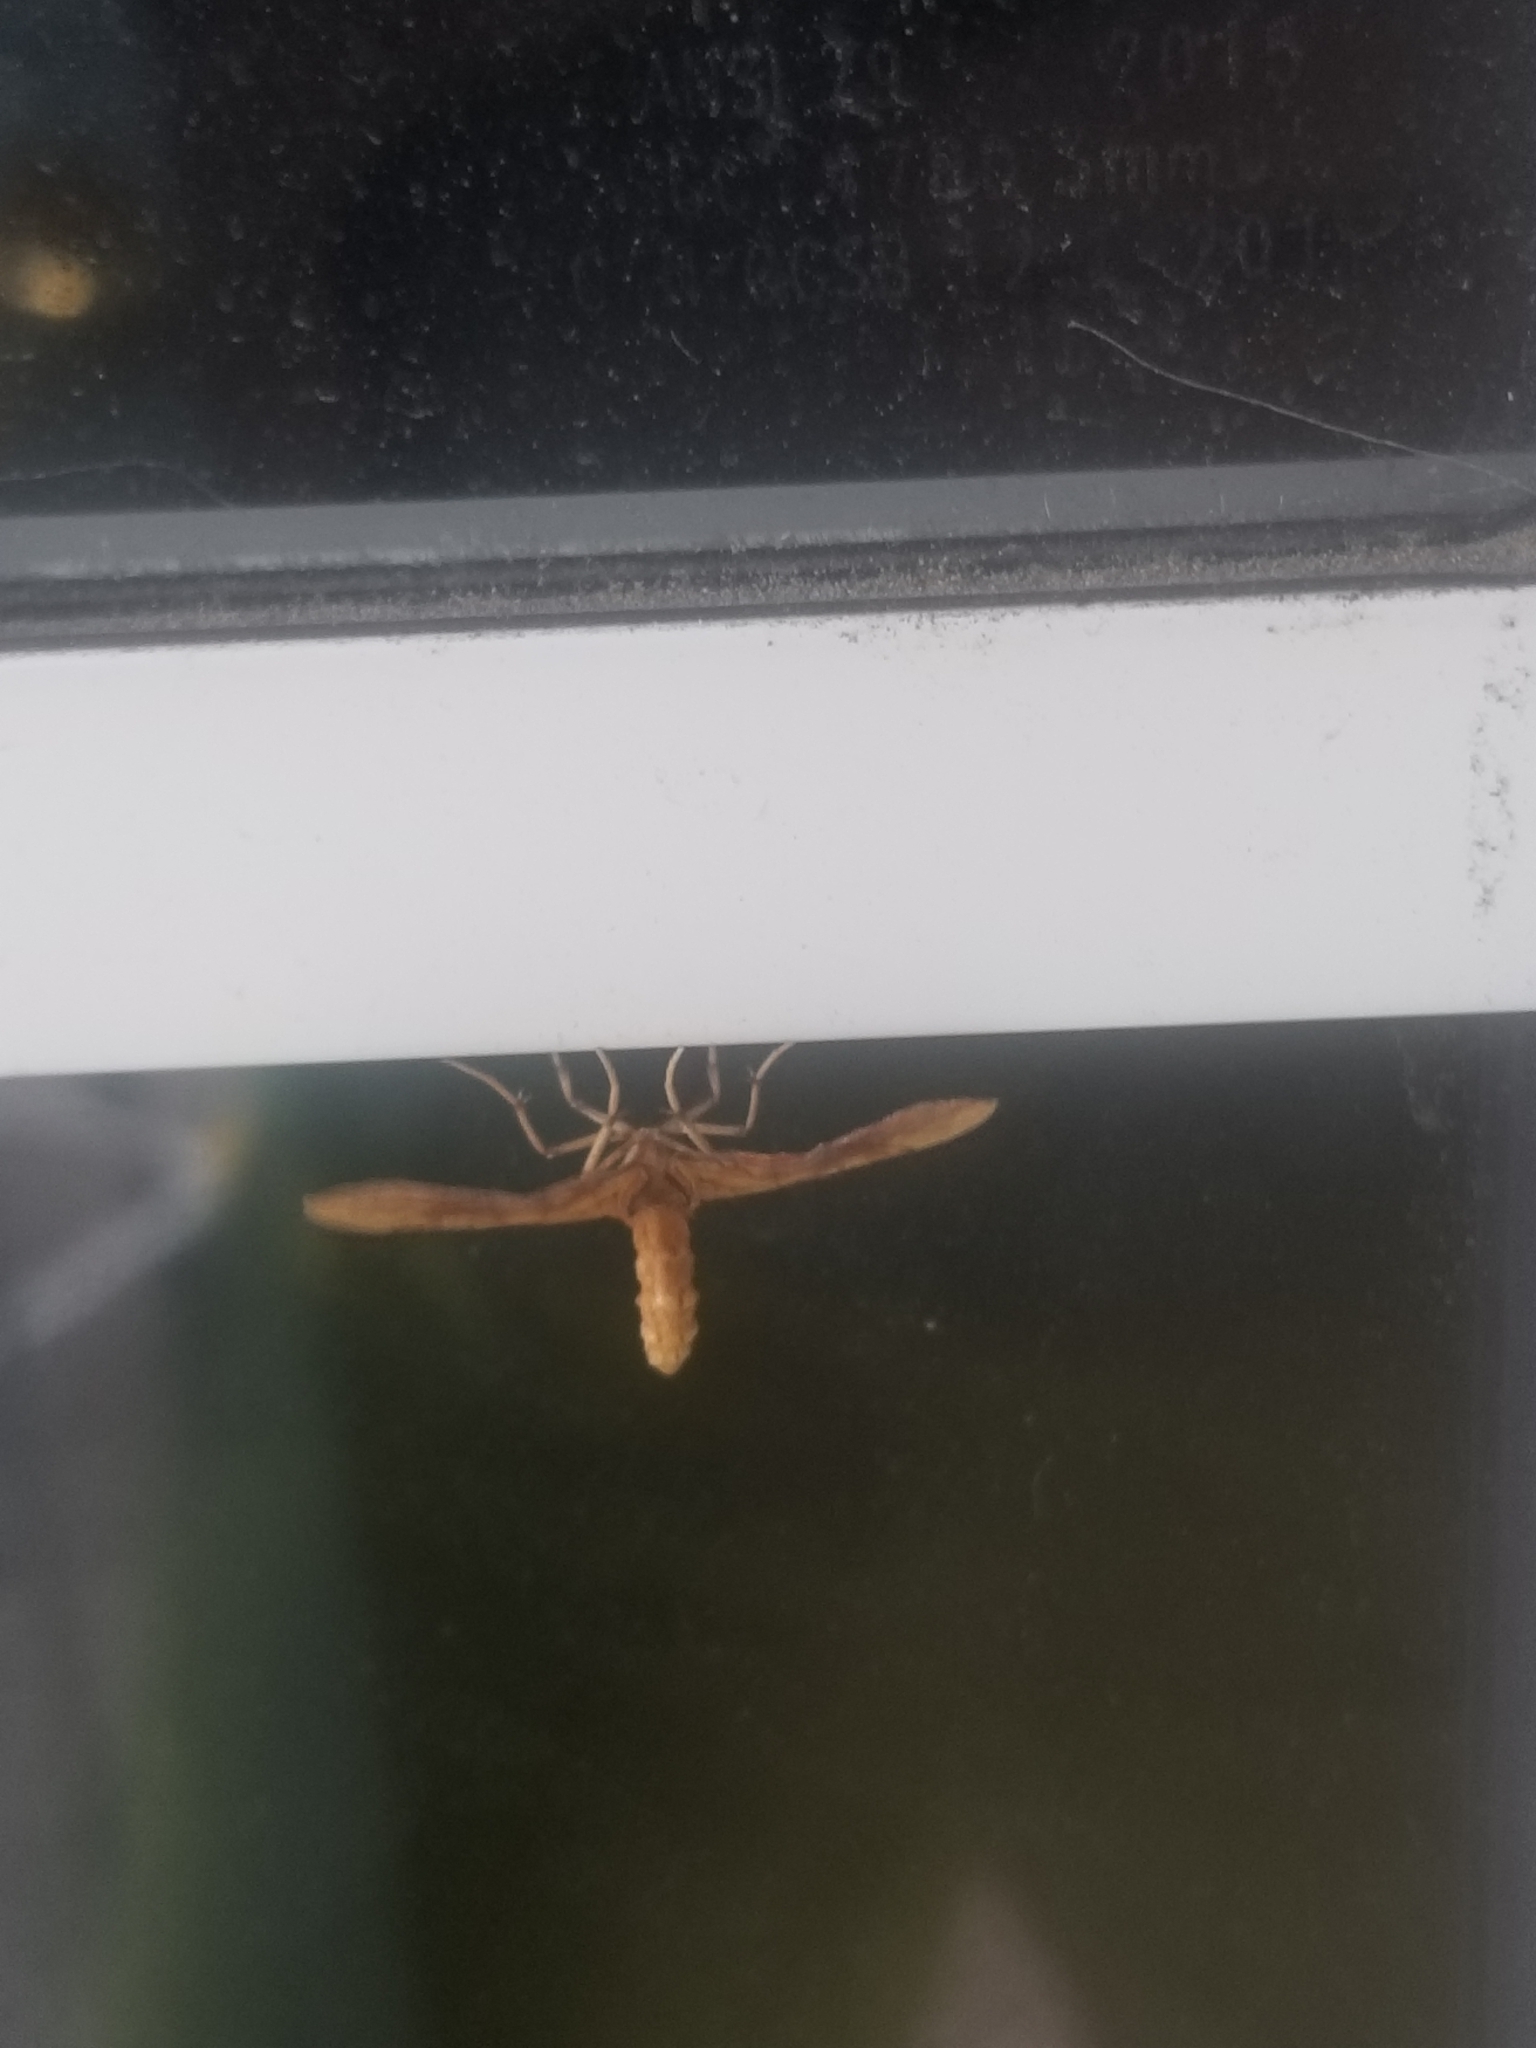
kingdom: Animalia
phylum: Arthropoda
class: Insecta
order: Lepidoptera
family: Geometridae
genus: Eulithis
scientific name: Eulithis
